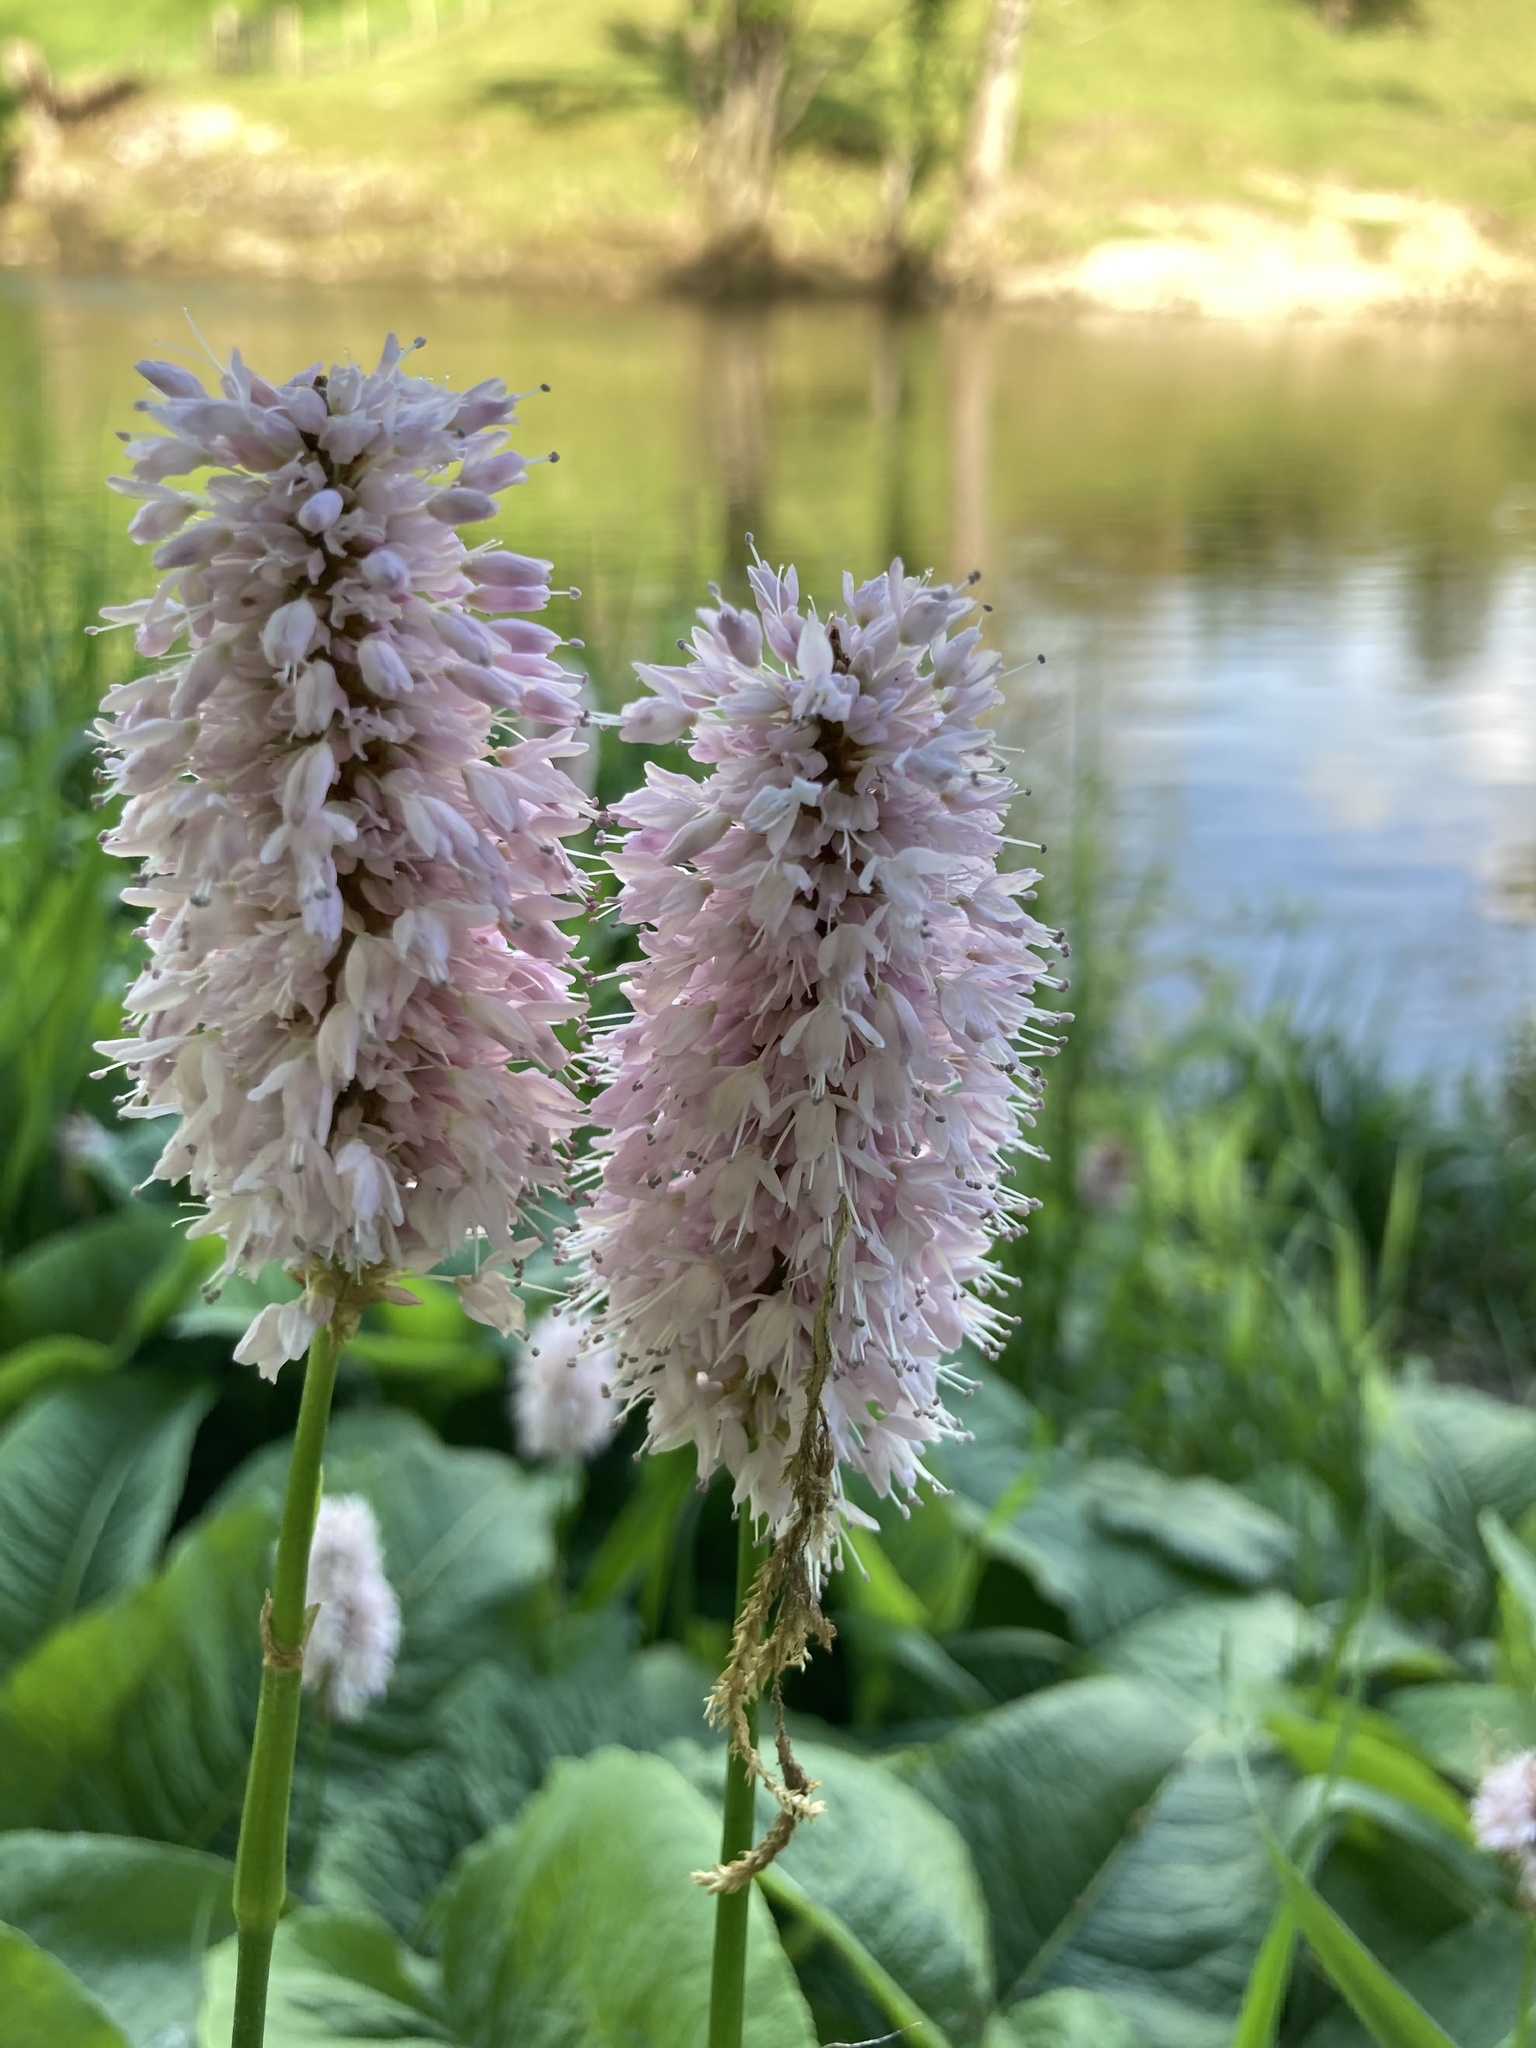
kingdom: Plantae
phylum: Tracheophyta
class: Magnoliopsida
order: Caryophyllales
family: Polygonaceae
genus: Bistorta
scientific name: Bistorta officinalis
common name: Common bistort
